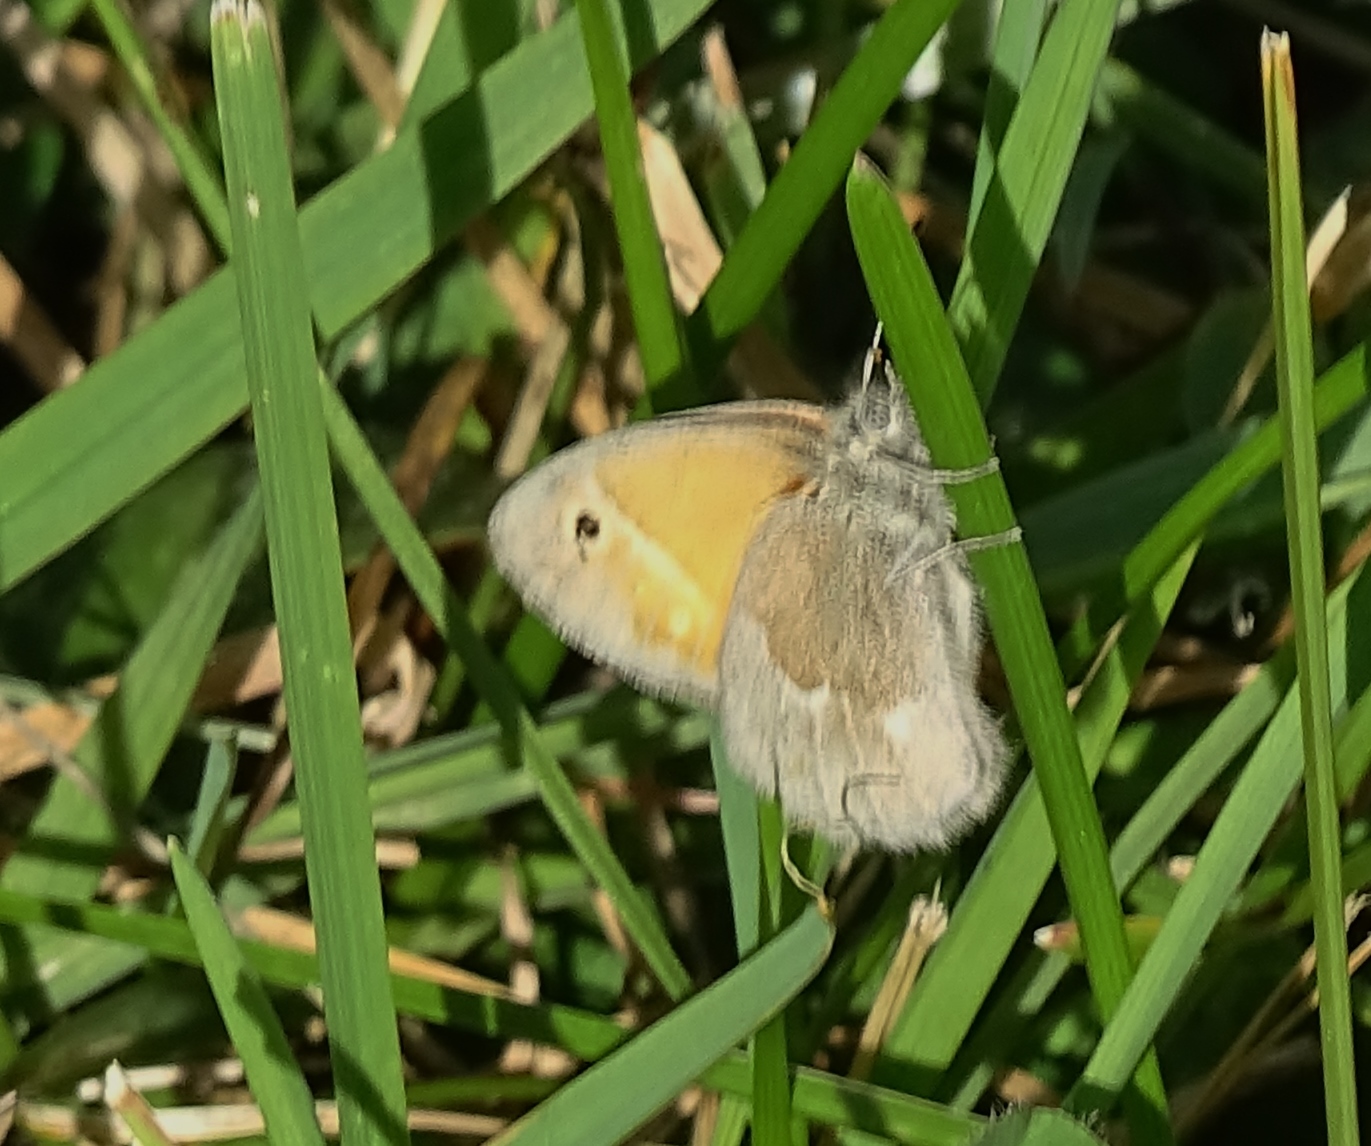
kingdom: Animalia
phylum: Arthropoda
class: Insecta
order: Lepidoptera
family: Nymphalidae
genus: Coenonympha
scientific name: Coenonympha california
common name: Common ringlet
